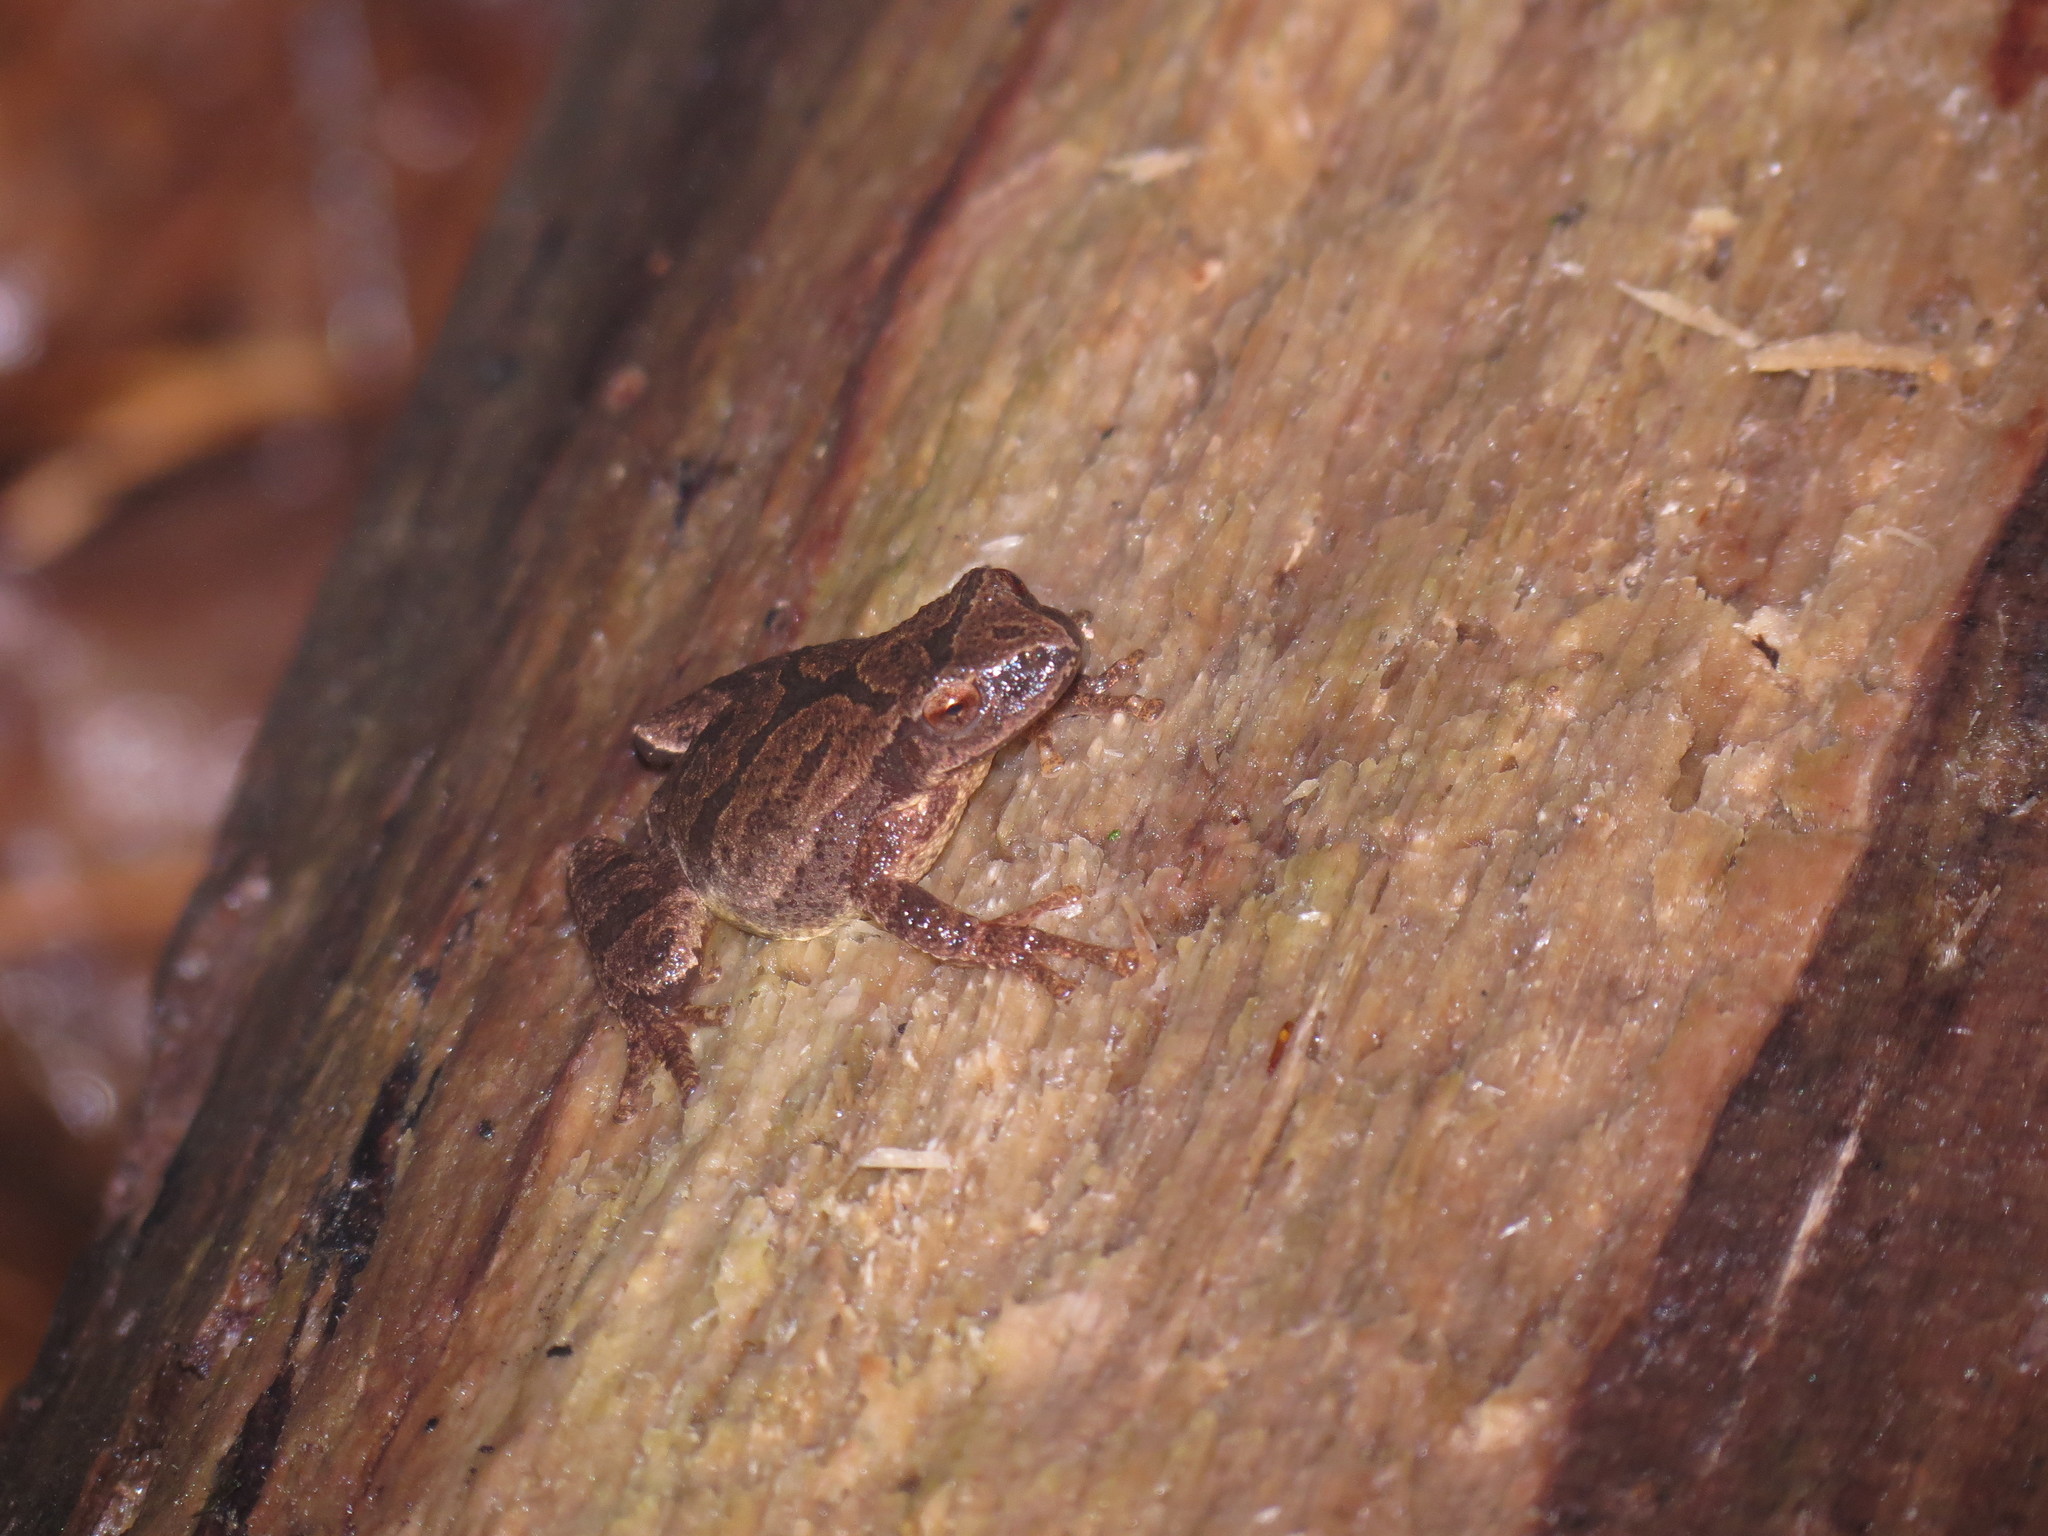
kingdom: Animalia
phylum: Chordata
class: Amphibia
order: Anura
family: Hylidae
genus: Pseudacris
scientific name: Pseudacris crucifer
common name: Spring peeper
